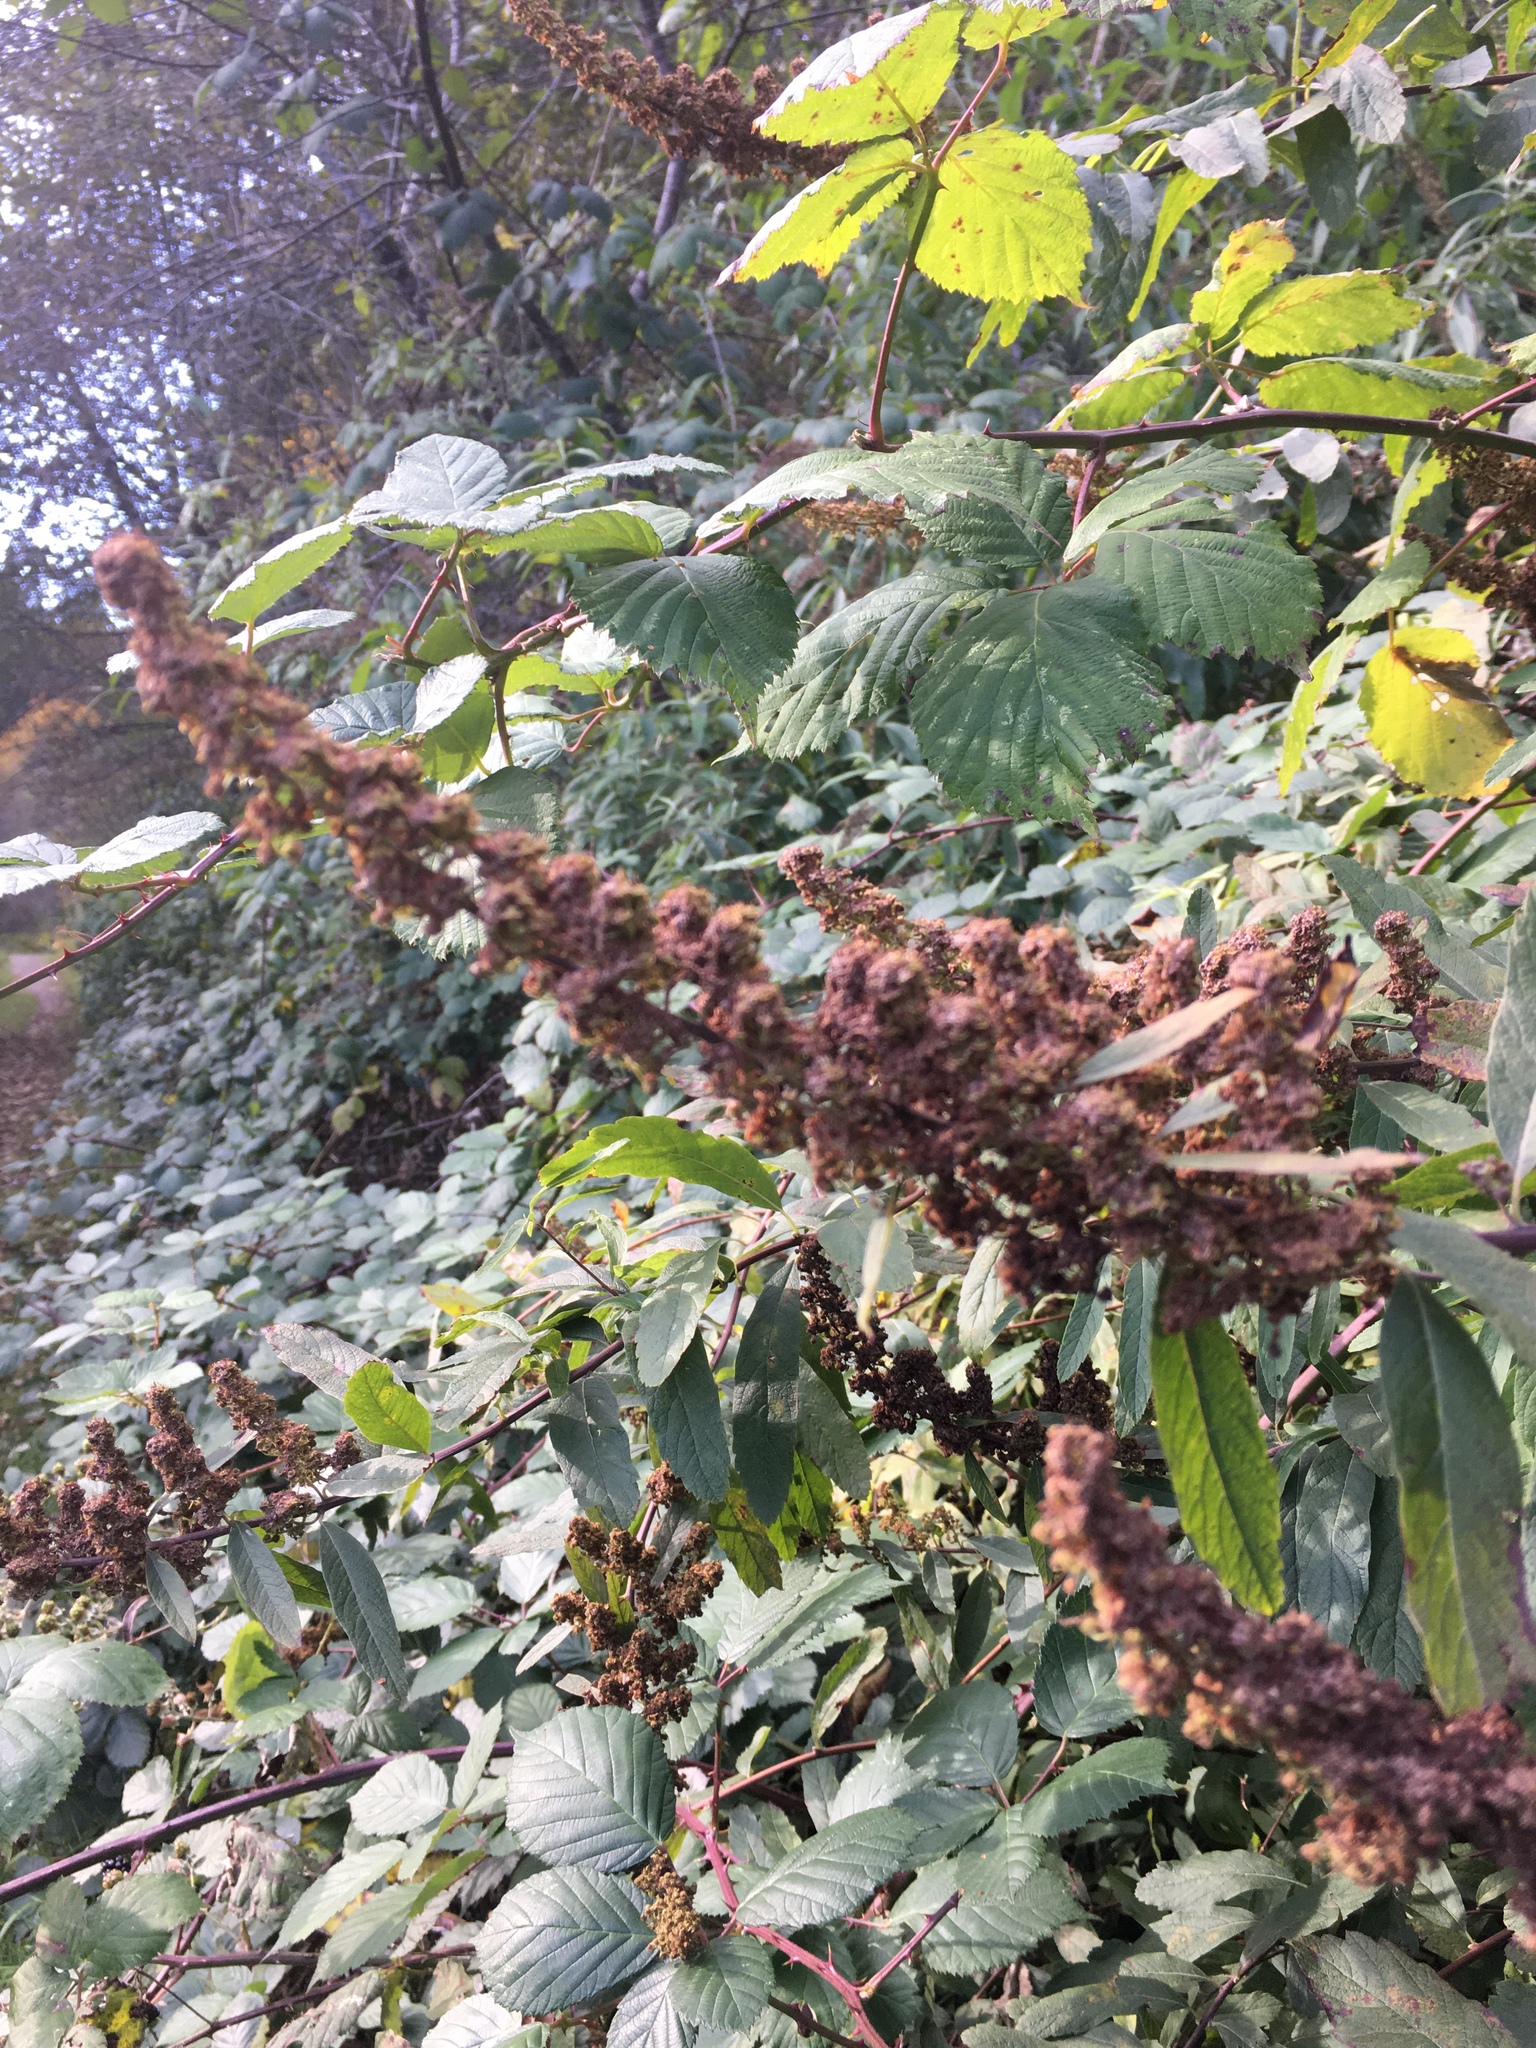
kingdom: Plantae
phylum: Tracheophyta
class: Magnoliopsida
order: Rosales
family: Rosaceae
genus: Spiraea
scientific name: Spiraea douglasii
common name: Steeplebush
